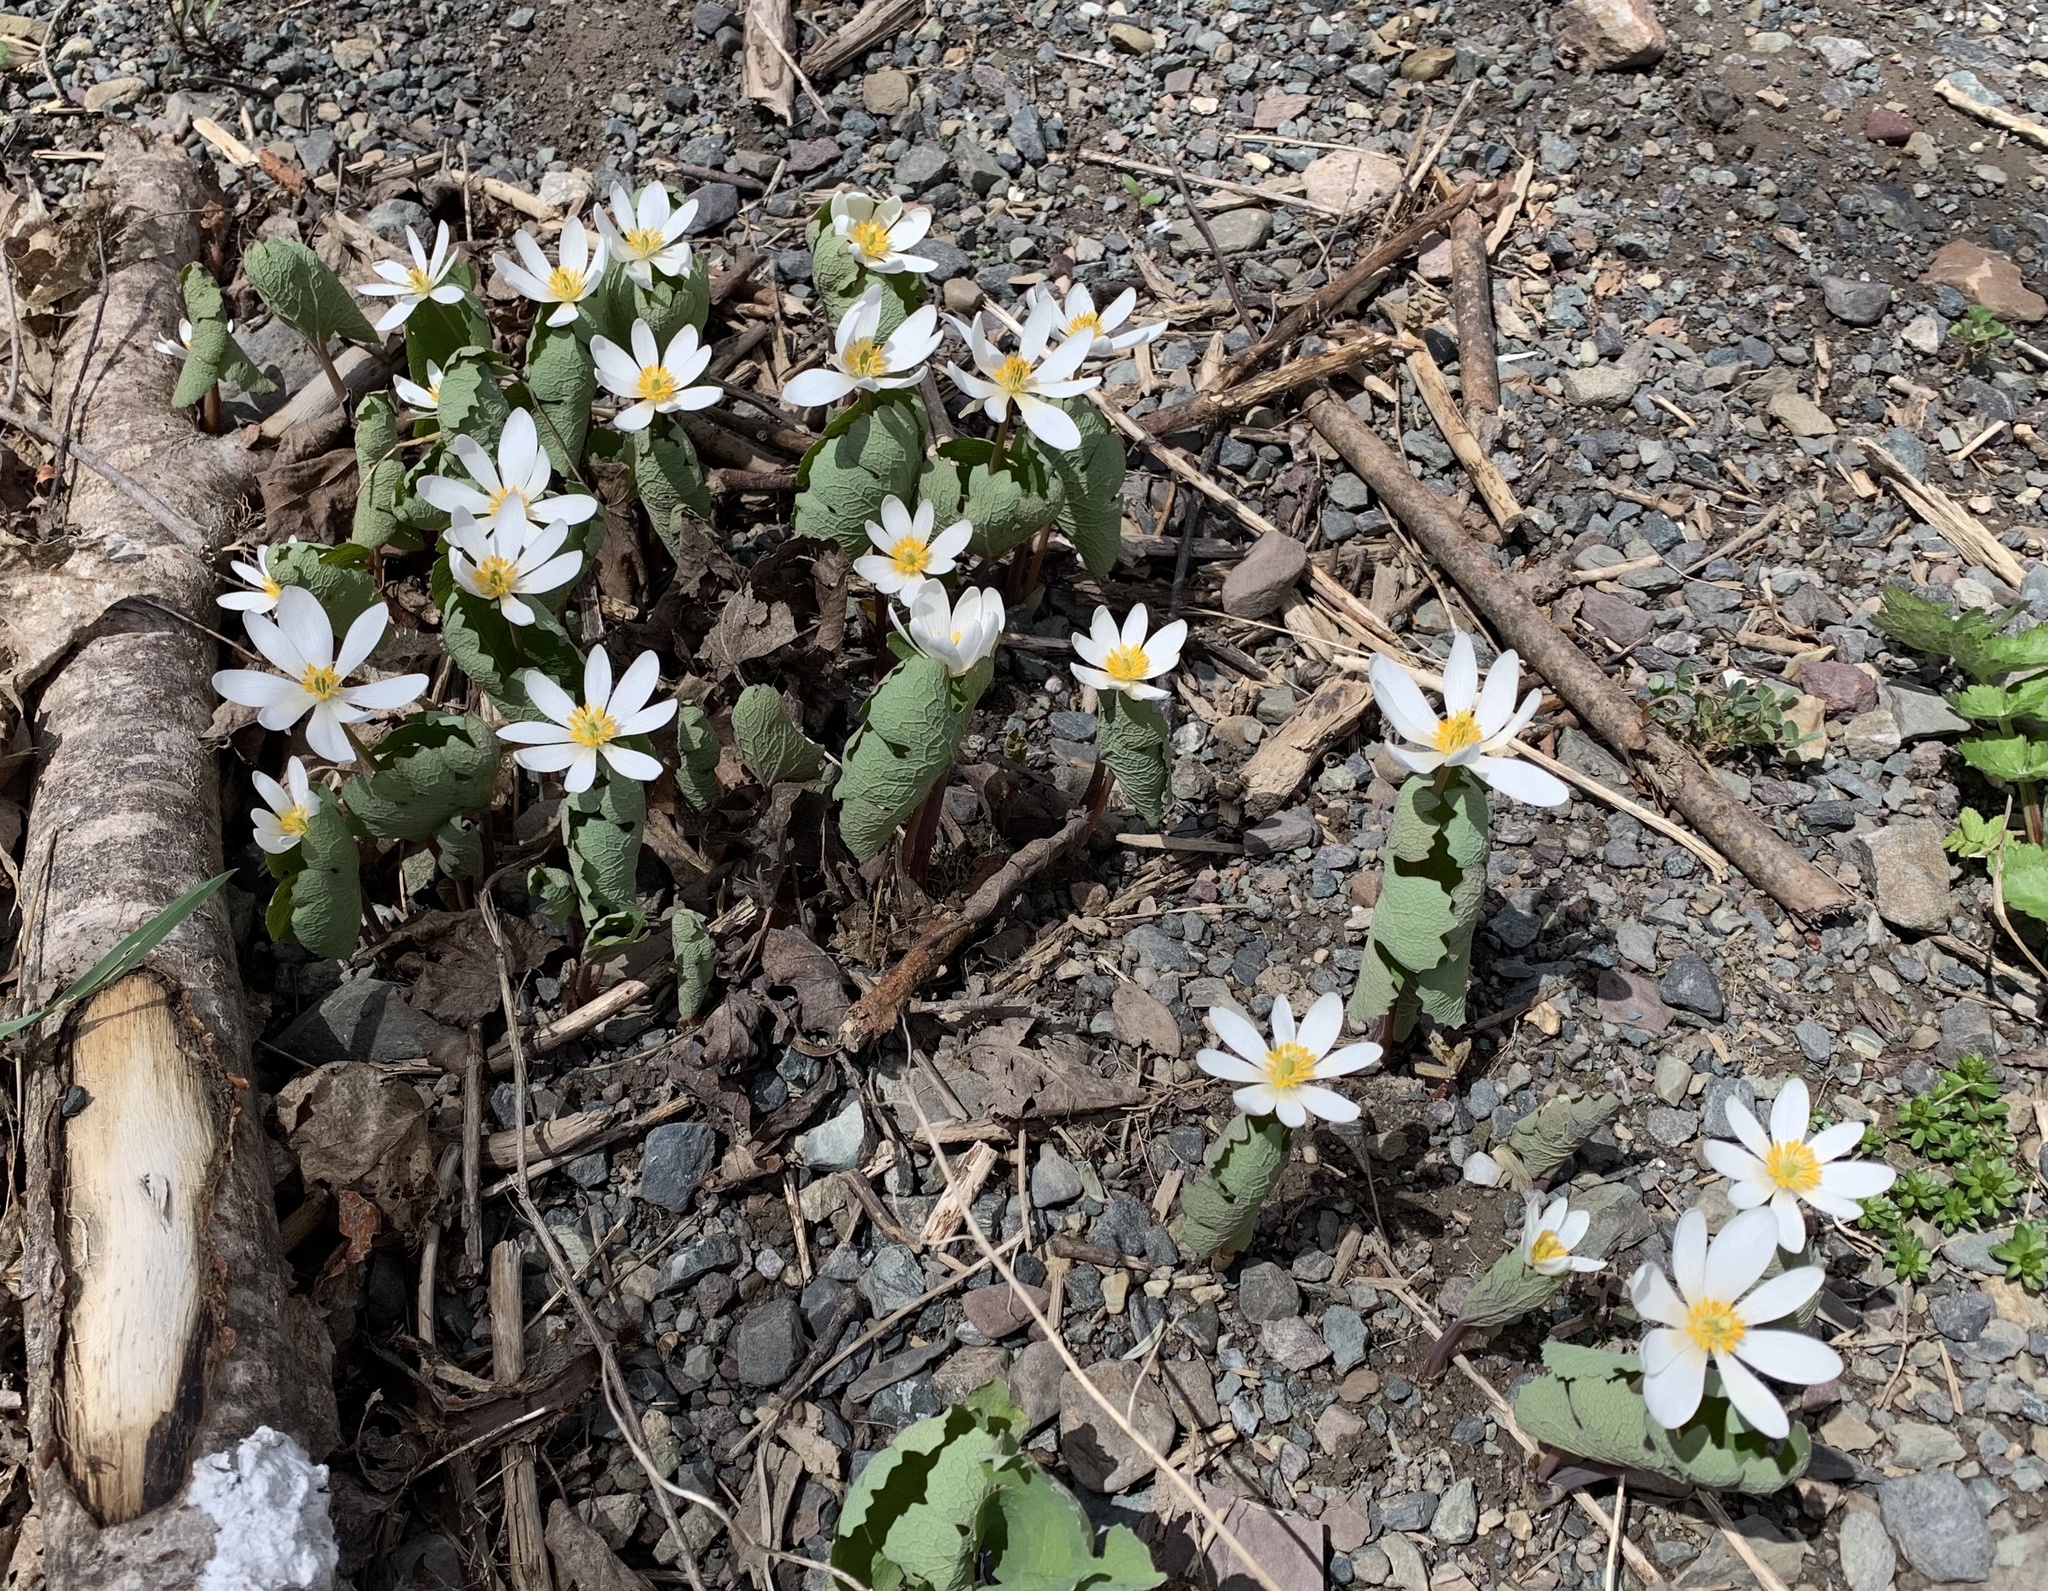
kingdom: Plantae
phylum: Tracheophyta
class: Magnoliopsida
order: Ranunculales
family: Papaveraceae
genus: Sanguinaria
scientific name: Sanguinaria canadensis
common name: Bloodroot
